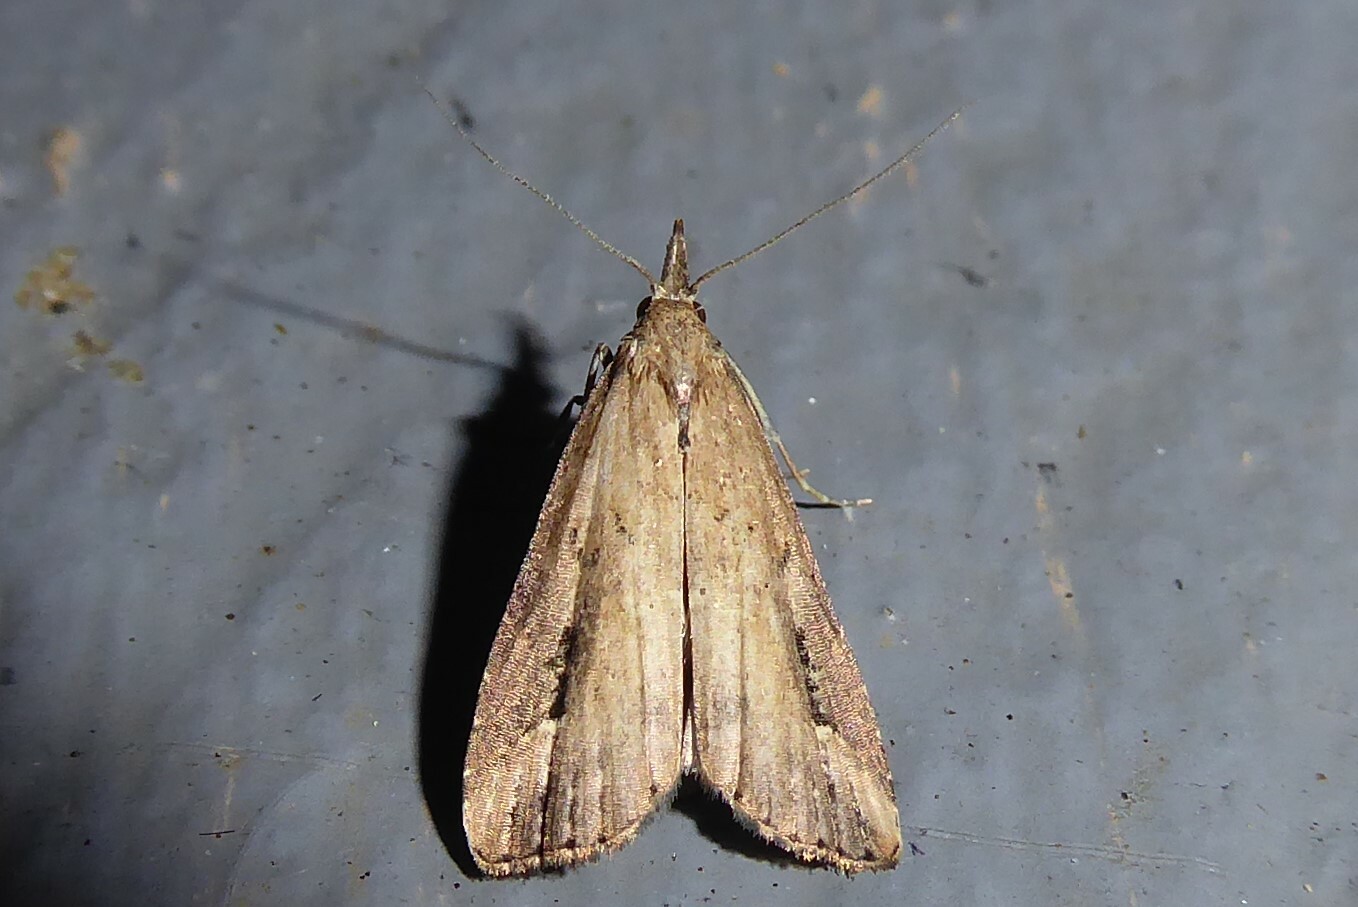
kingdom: Animalia
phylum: Arthropoda
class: Insecta
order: Lepidoptera
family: Erebidae
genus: Schrankia
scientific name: Schrankia costaestrigalis
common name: Pinion-streaked snout
